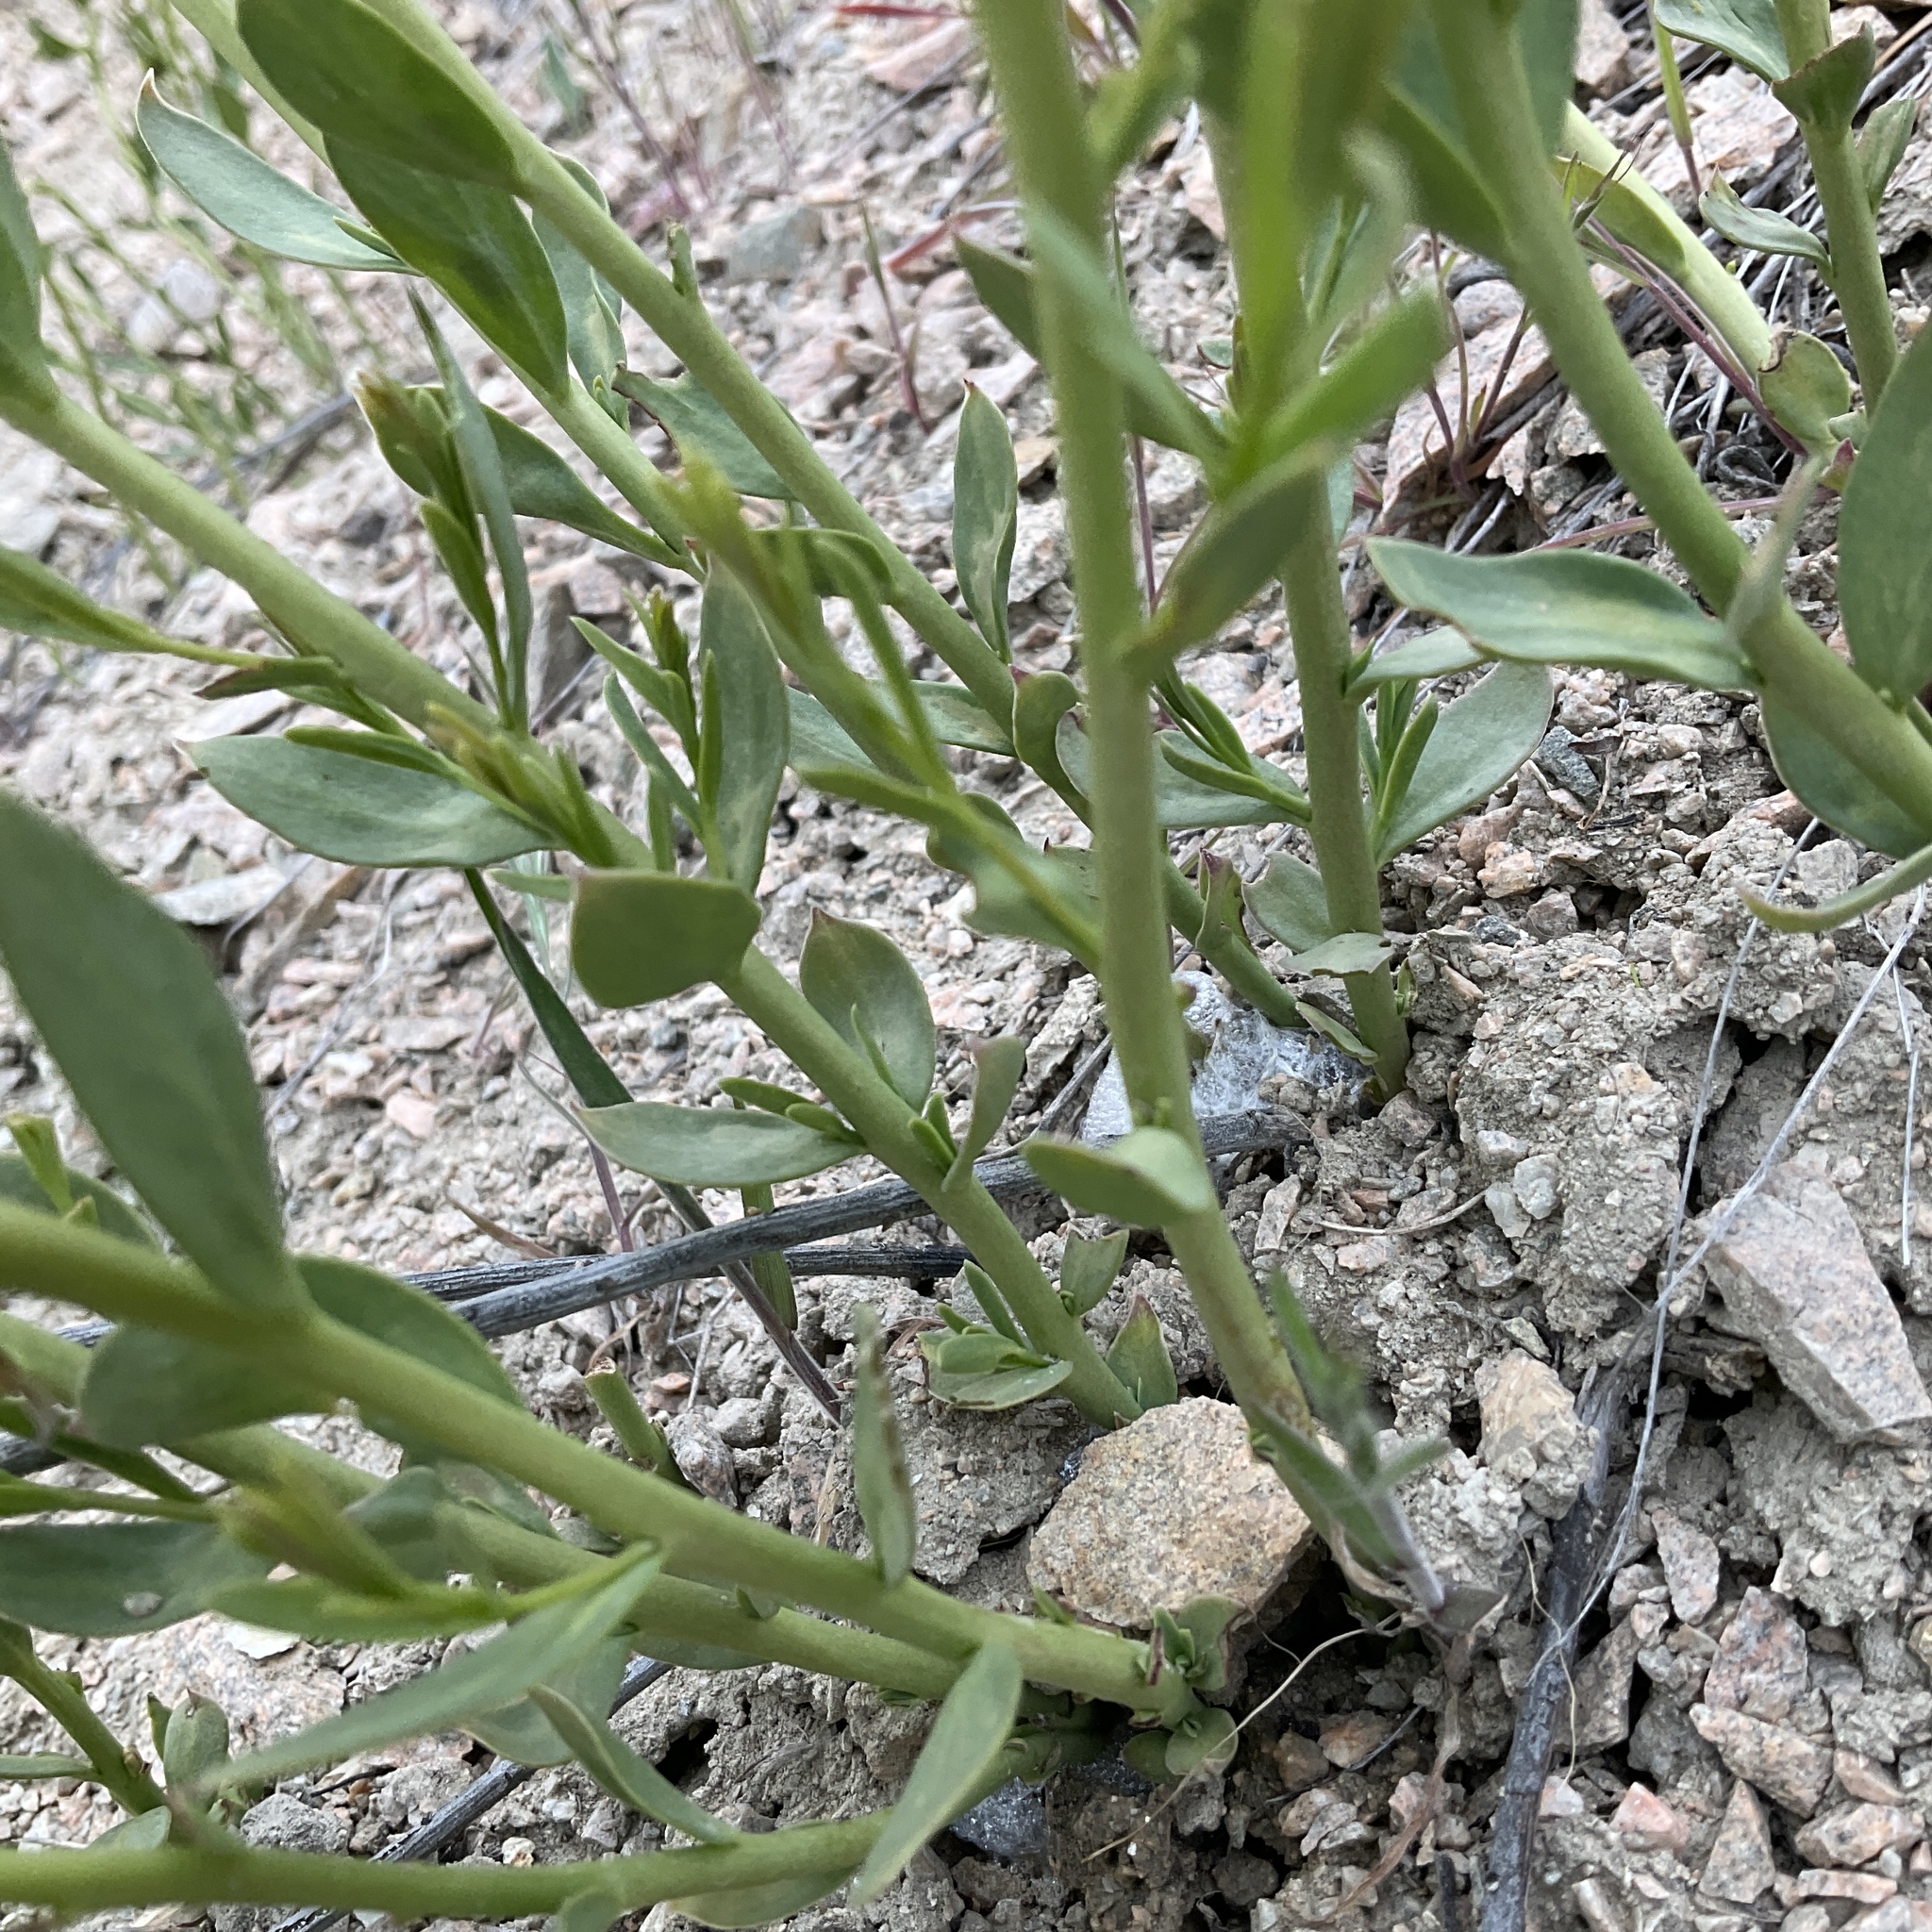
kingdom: Plantae
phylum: Tracheophyta
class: Magnoliopsida
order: Santalales
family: Comandraceae
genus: Comandra
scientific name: Comandra umbellata
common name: Bastard toadflax
